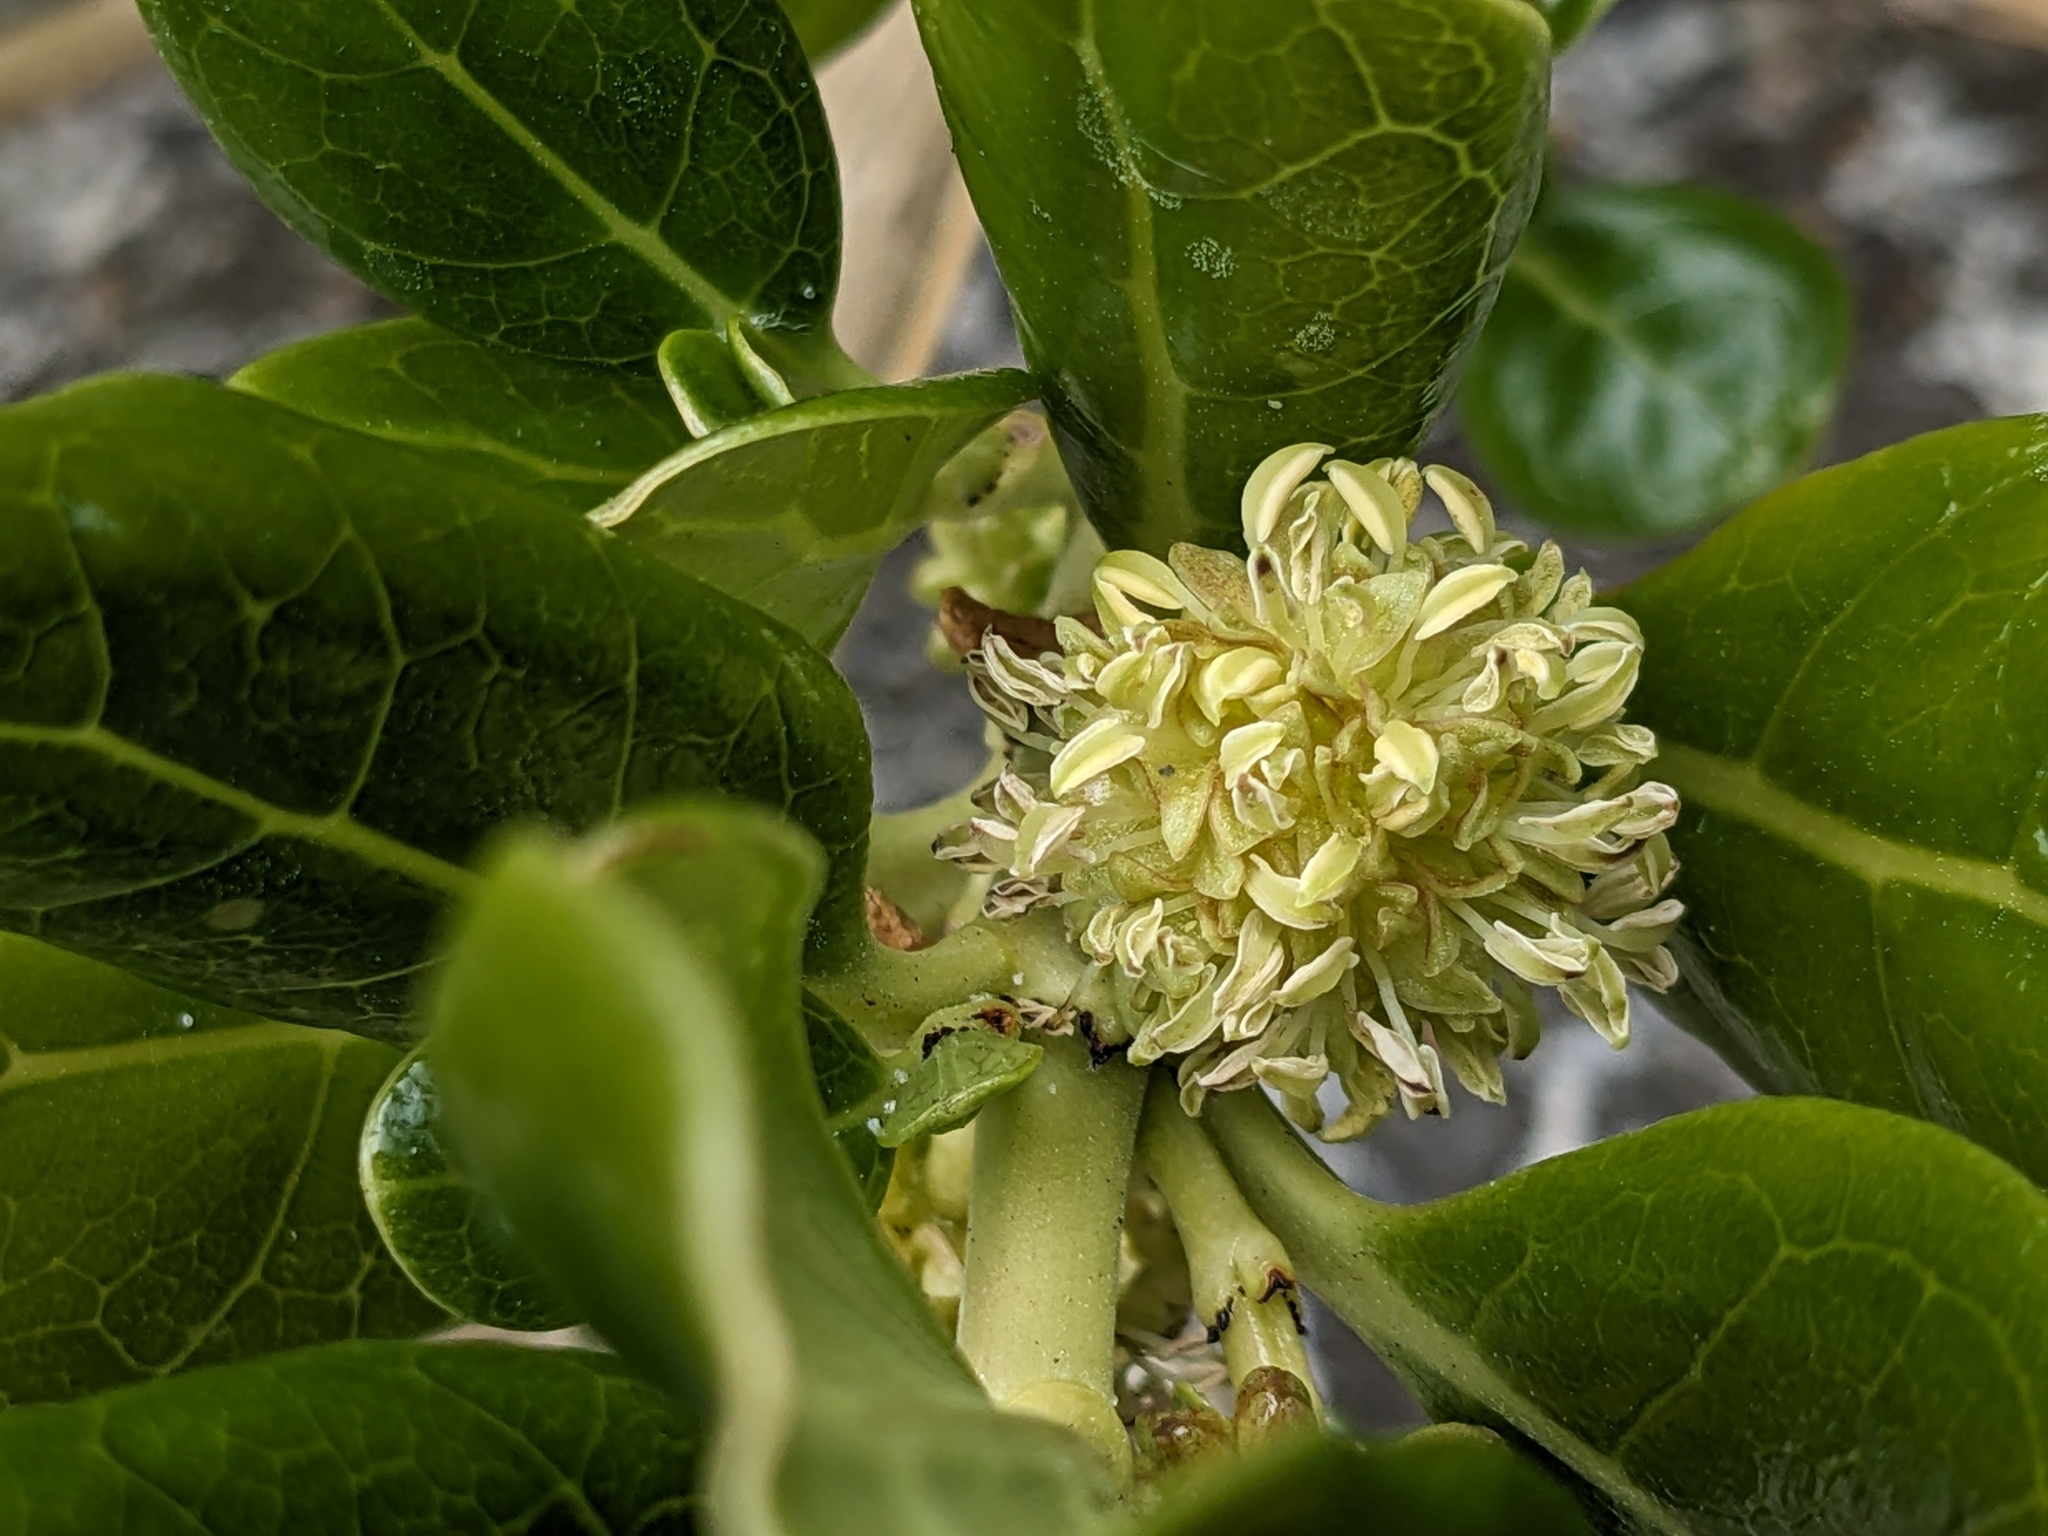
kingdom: Plantae
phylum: Tracheophyta
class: Magnoliopsida
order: Gentianales
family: Rubiaceae
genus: Coprosma
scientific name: Coprosma repens
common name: Tree bedstraw
